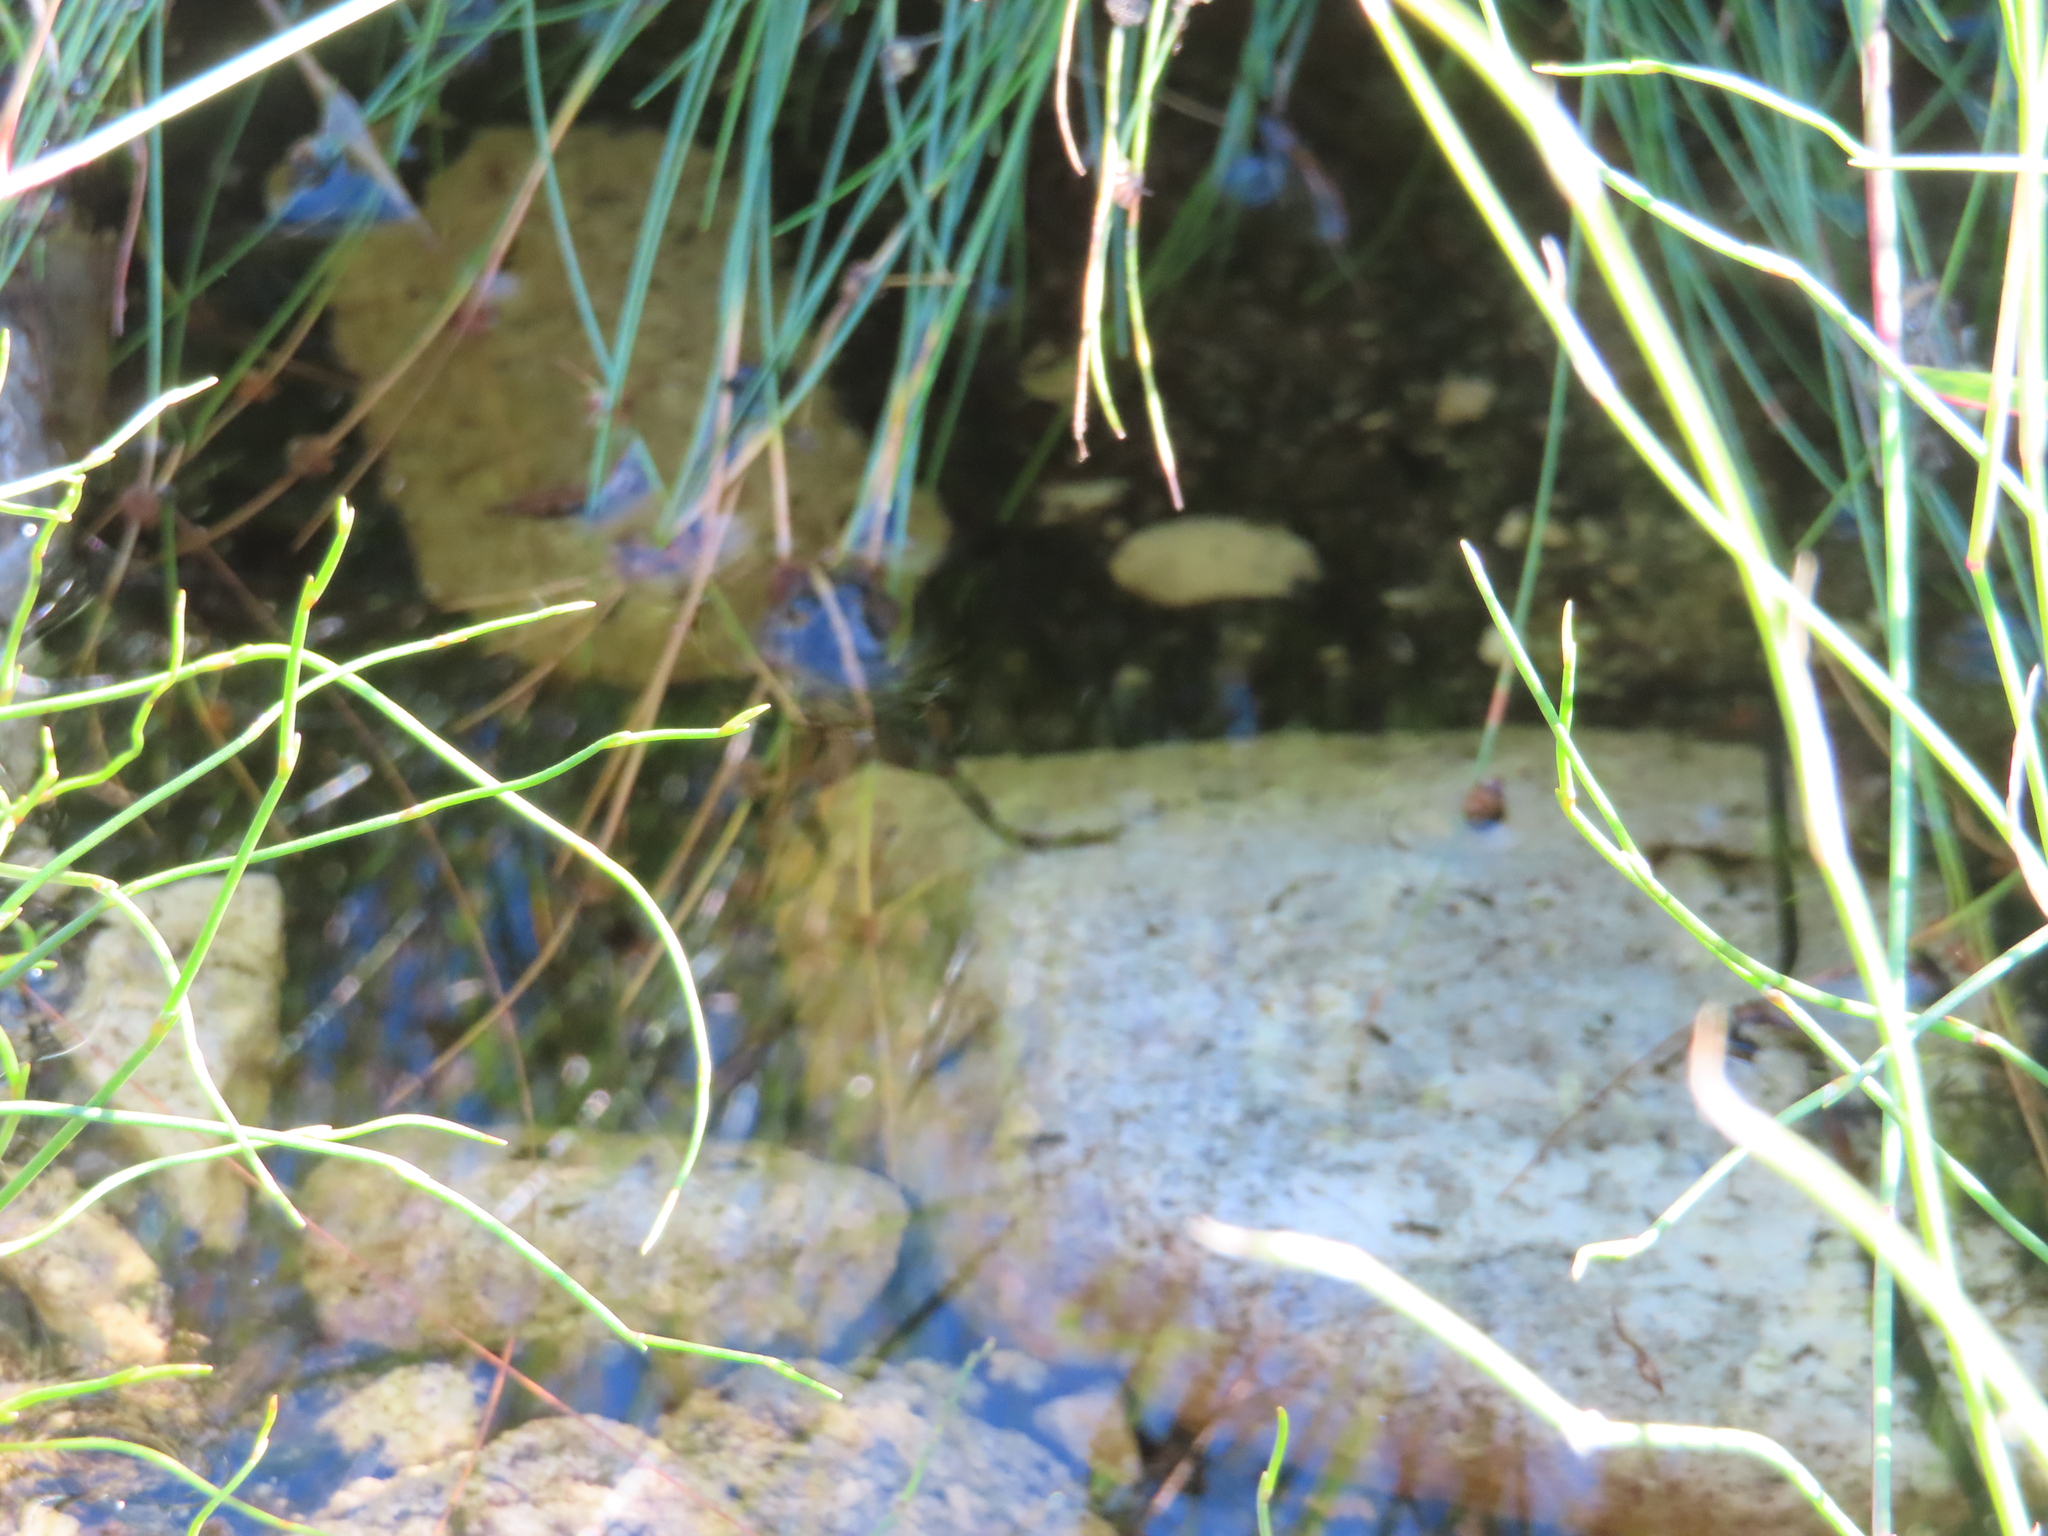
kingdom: Animalia
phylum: Chordata
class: Amphibia
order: Anura
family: Pyxicephalidae
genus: Amietia
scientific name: Amietia fuscigula
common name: Cape rana
